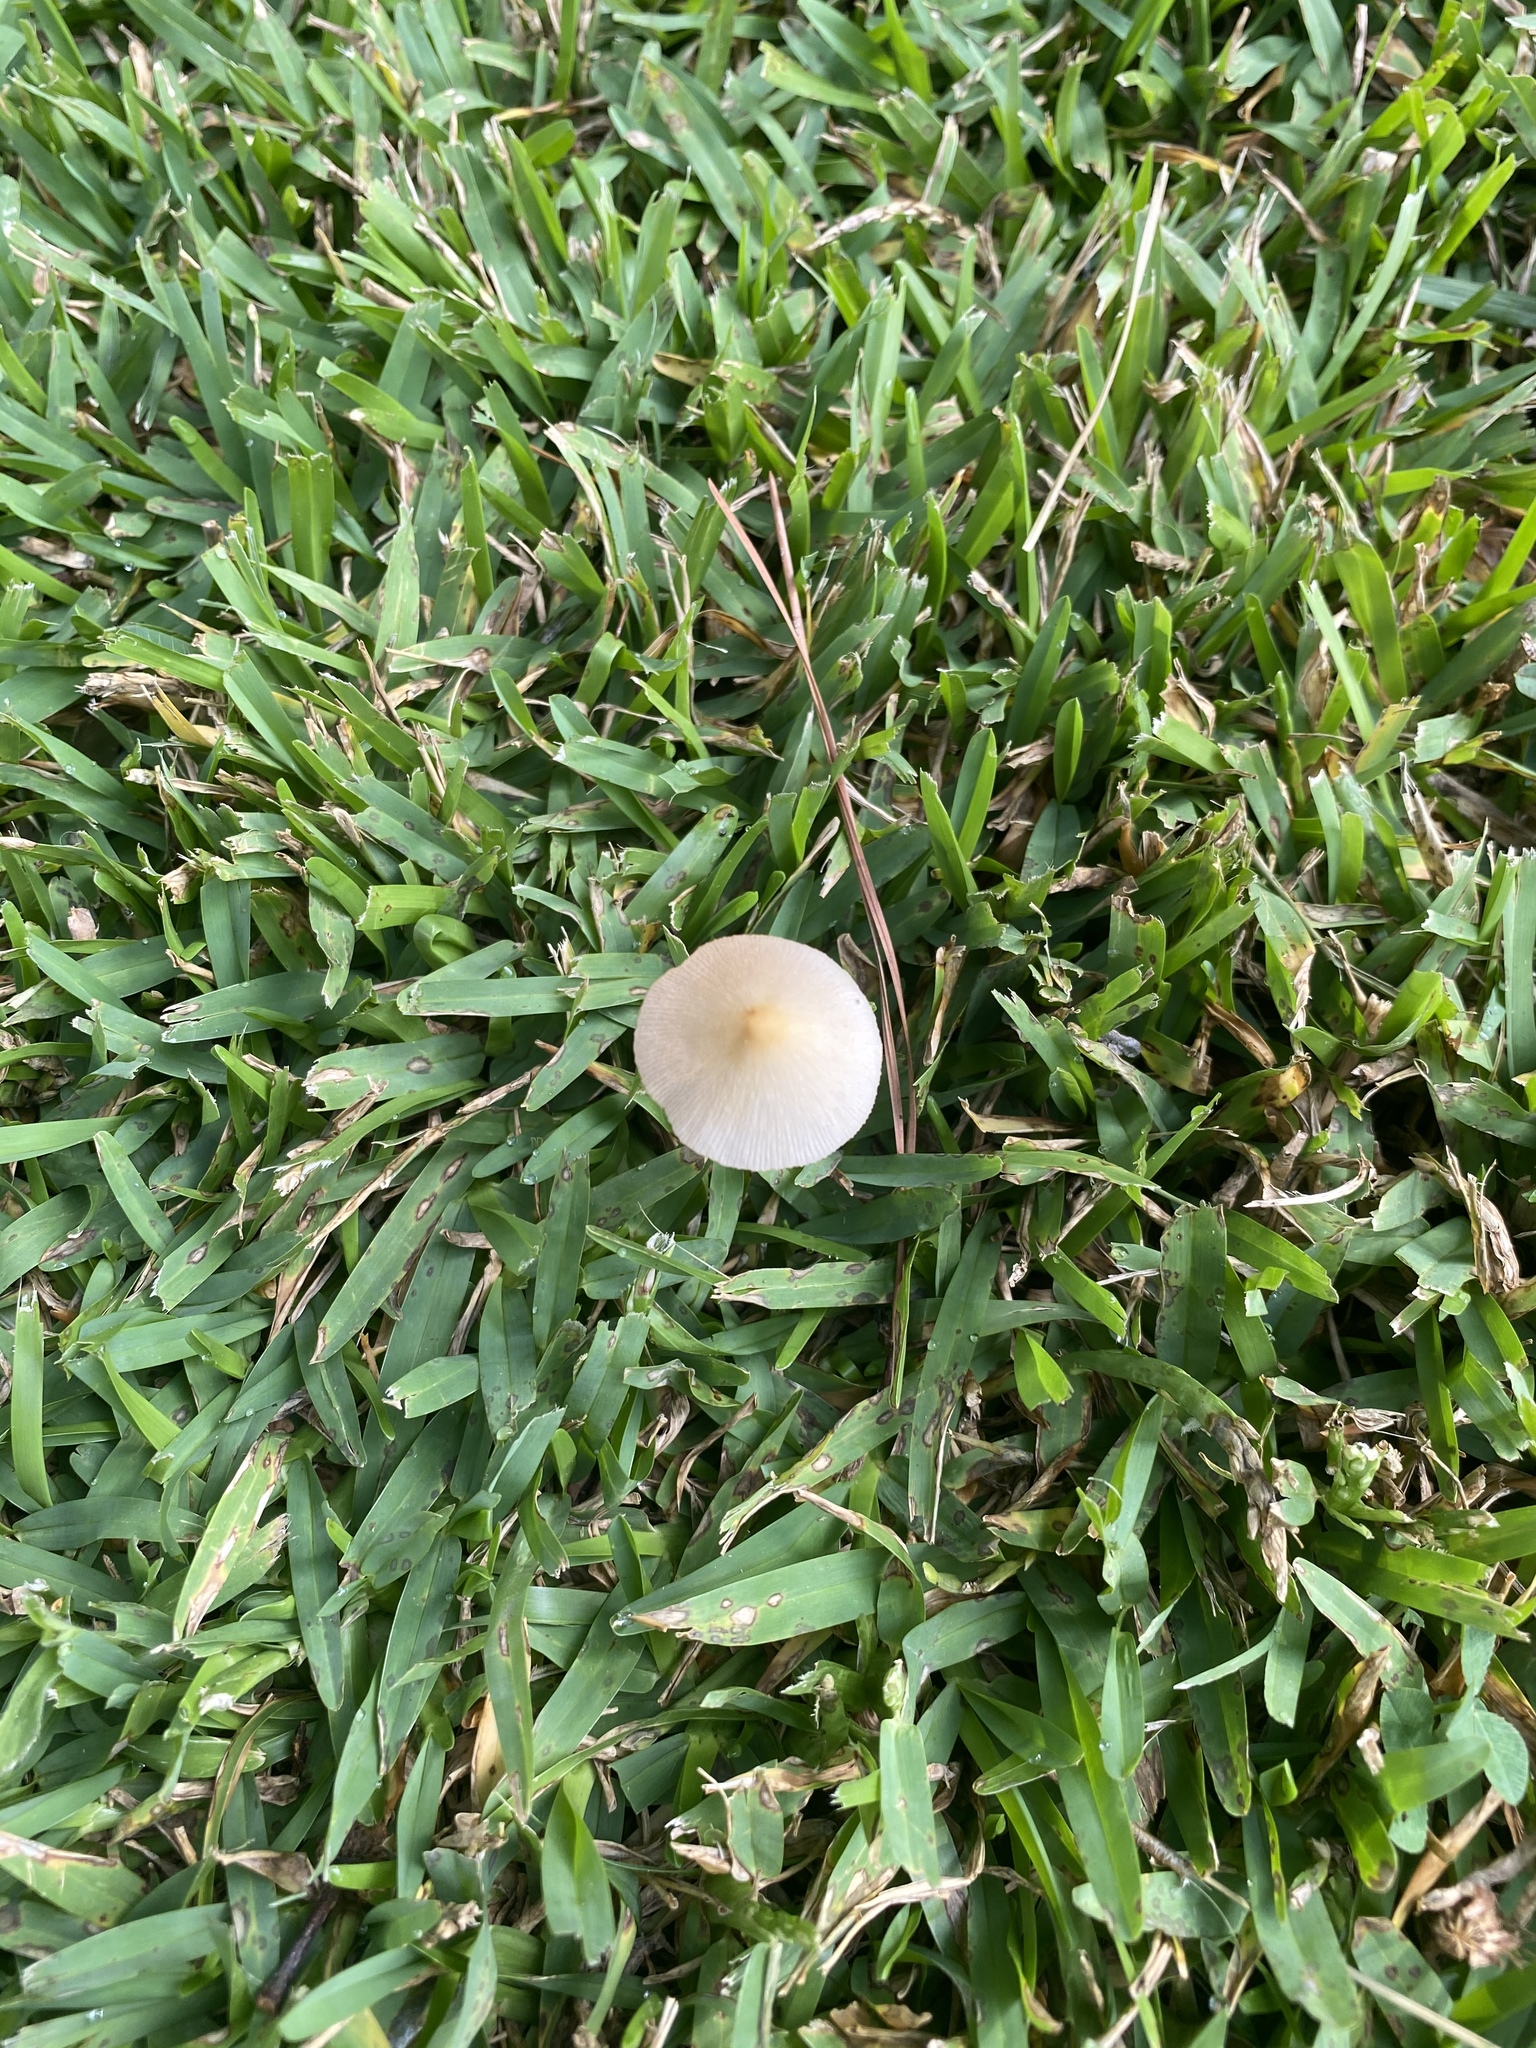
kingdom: Fungi
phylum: Basidiomycota
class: Agaricomycetes
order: Agaricales
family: Bolbitiaceae
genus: Conocybe
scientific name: Conocybe apala
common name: Milky conecap
